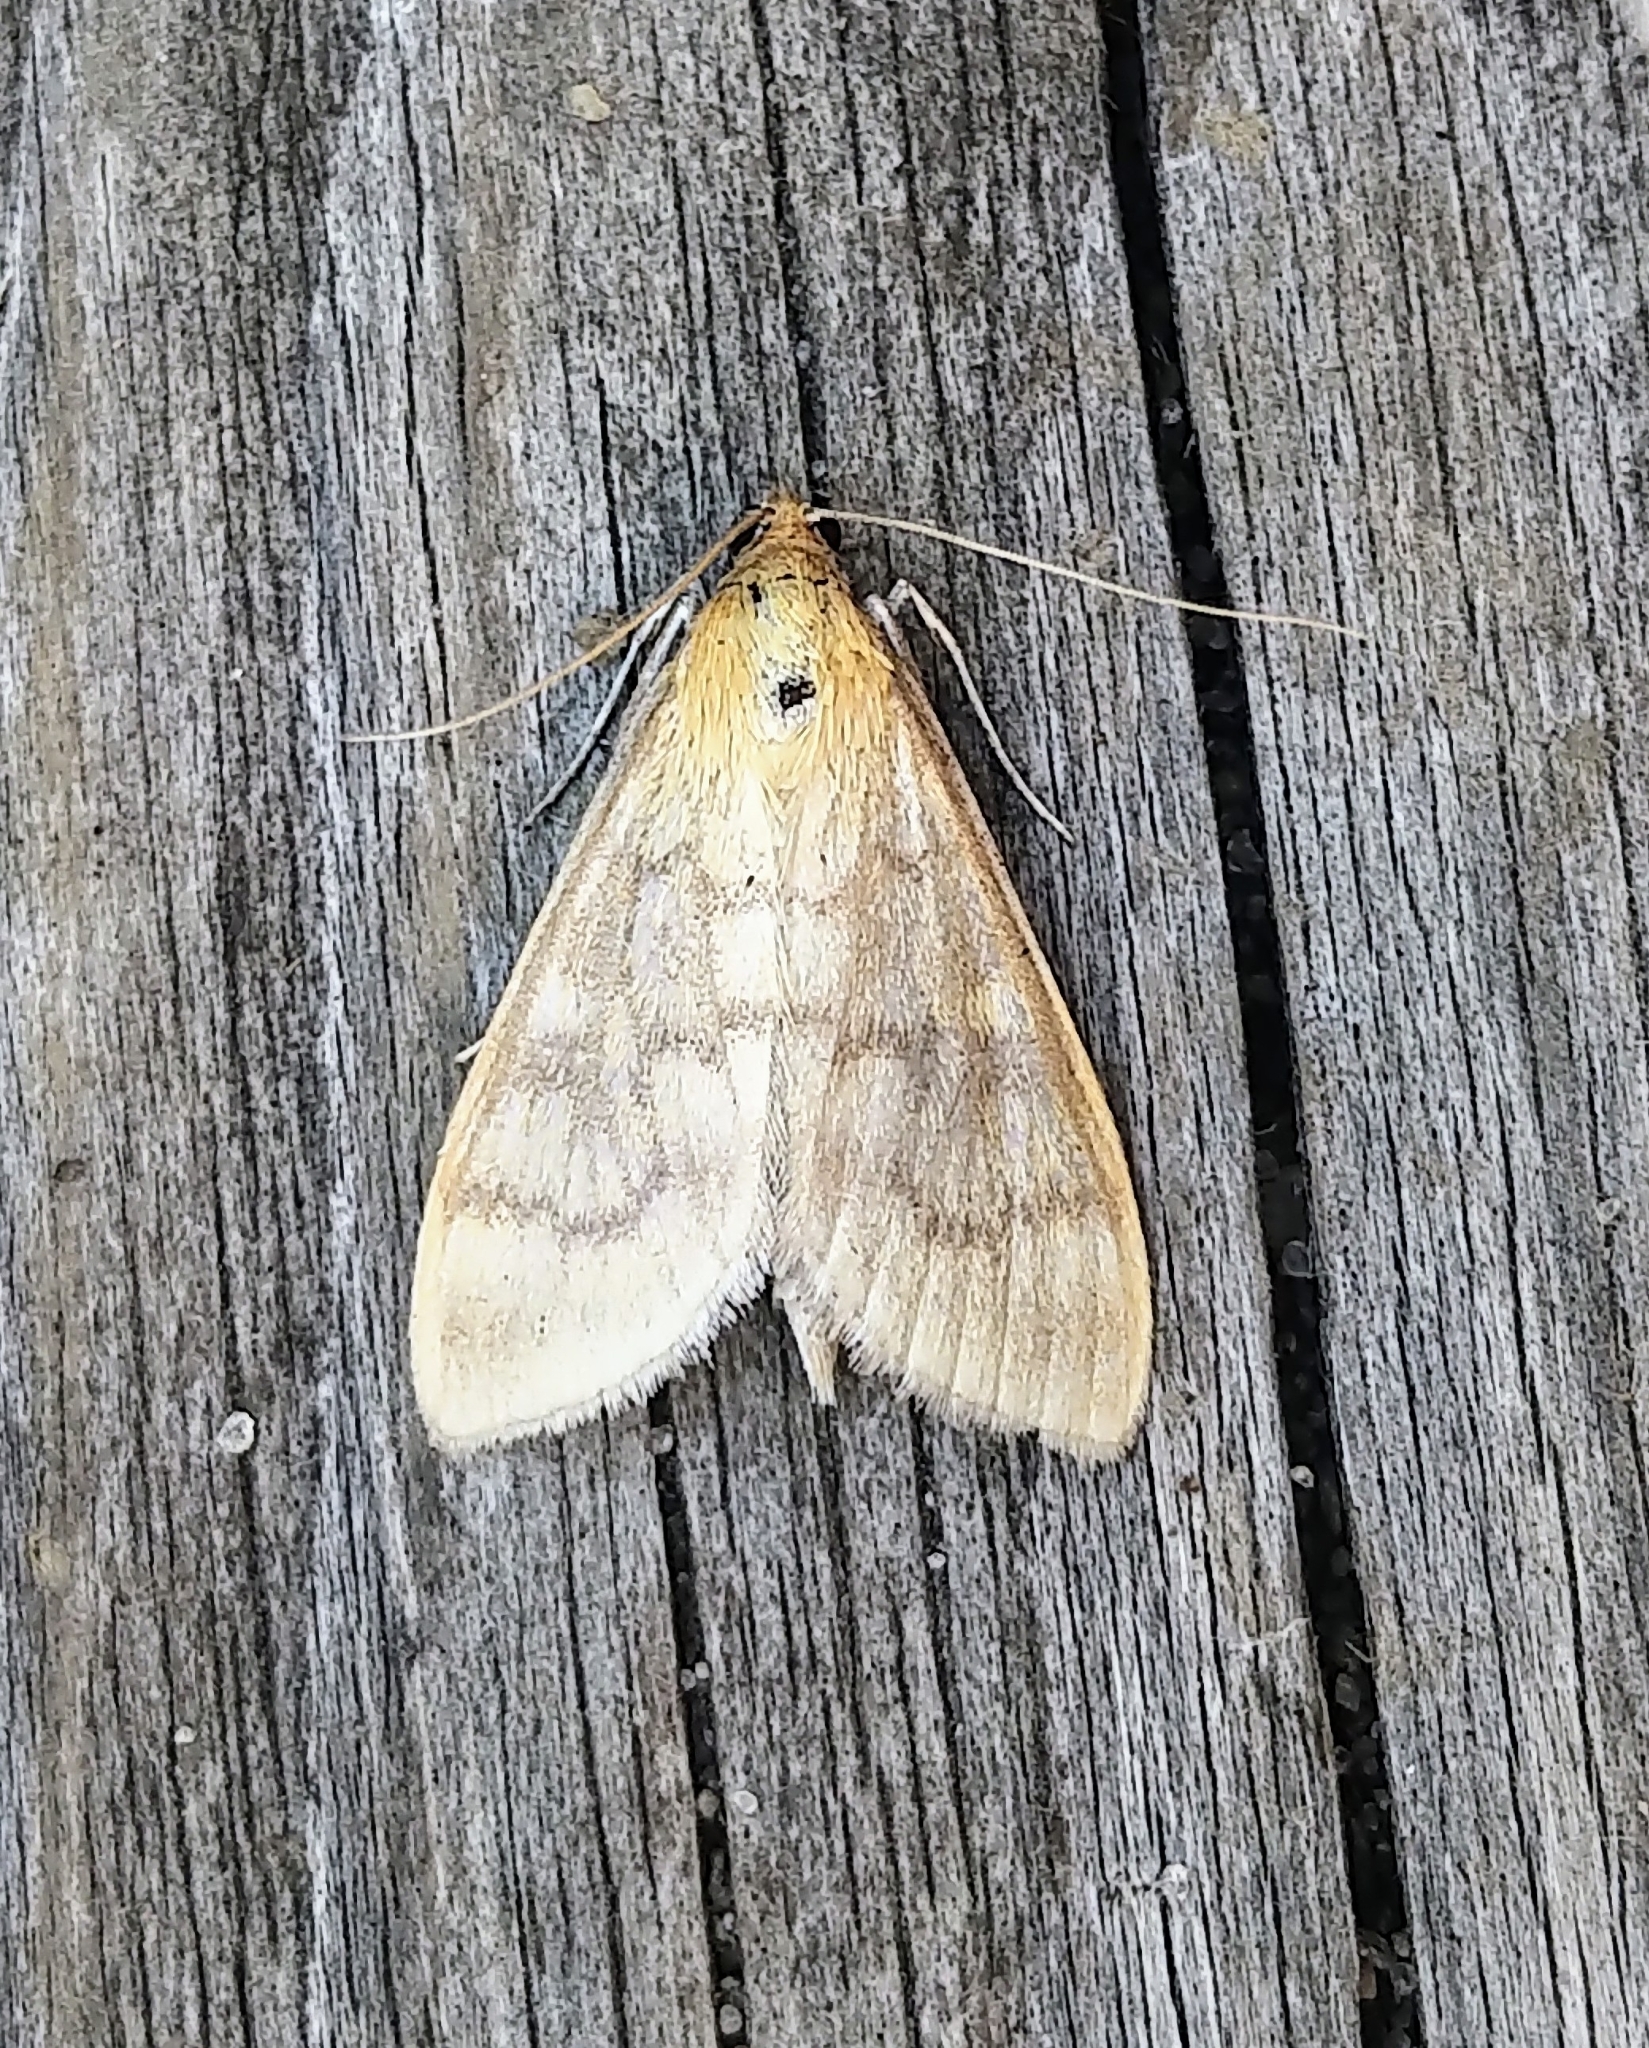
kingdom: Animalia
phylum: Arthropoda
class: Insecta
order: Lepidoptera
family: Crambidae
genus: Mecyna
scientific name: Mecyna submedialis
